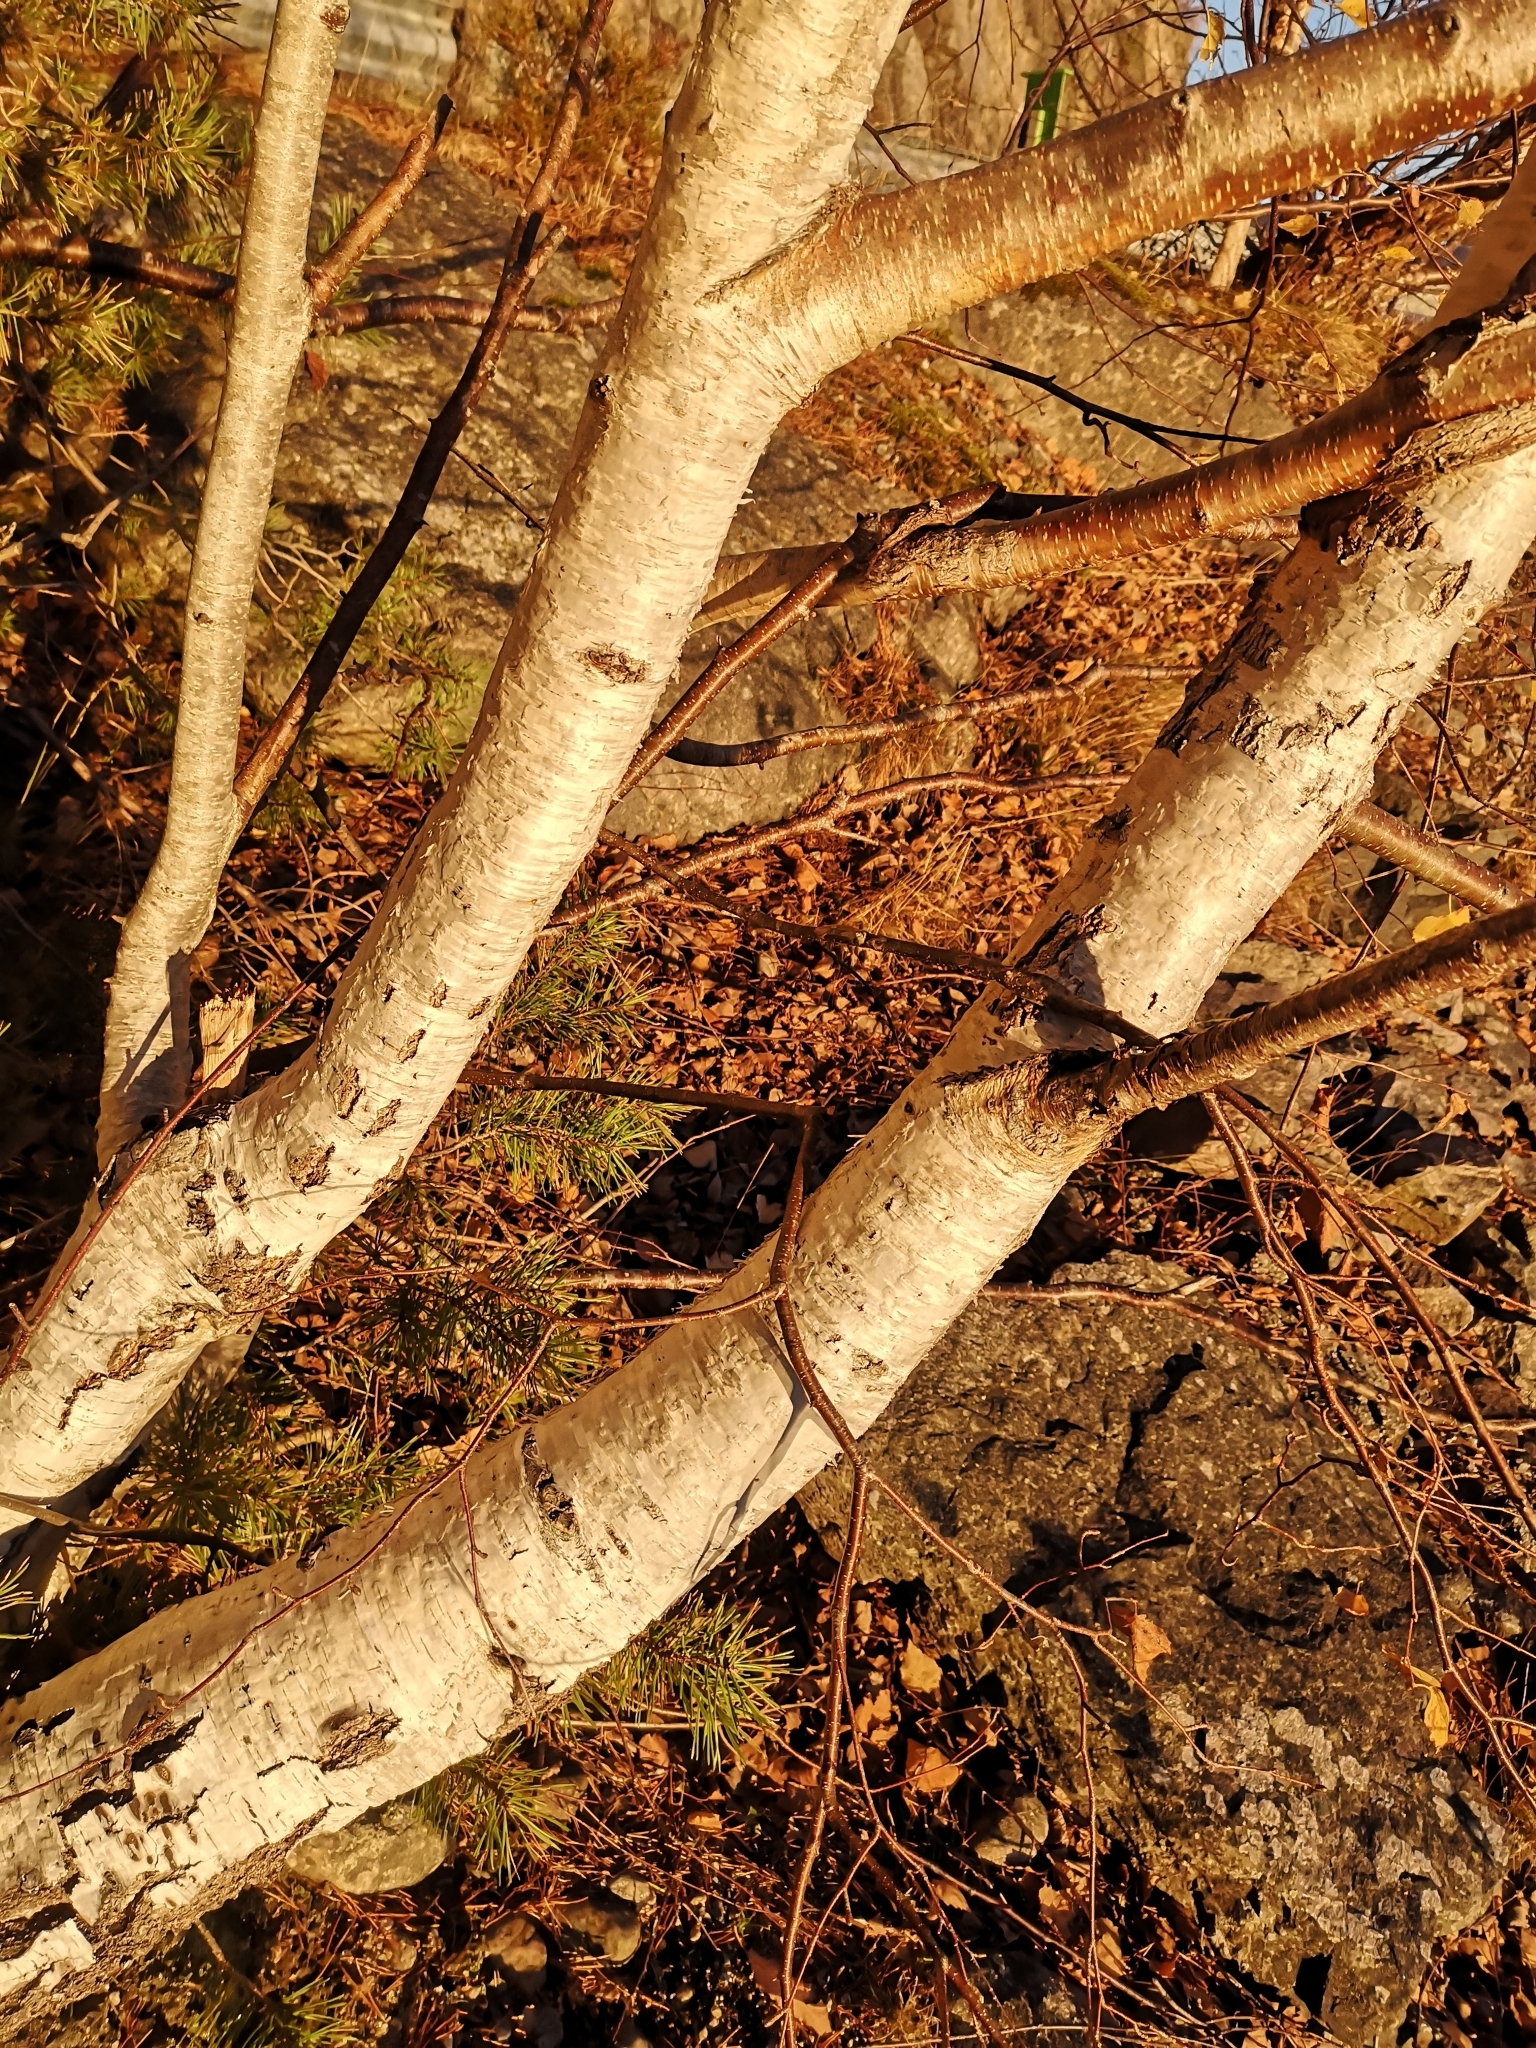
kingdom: Plantae
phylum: Tracheophyta
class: Magnoliopsida
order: Fagales
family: Betulaceae
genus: Betula
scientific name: Betula pendula
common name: Silver birch
